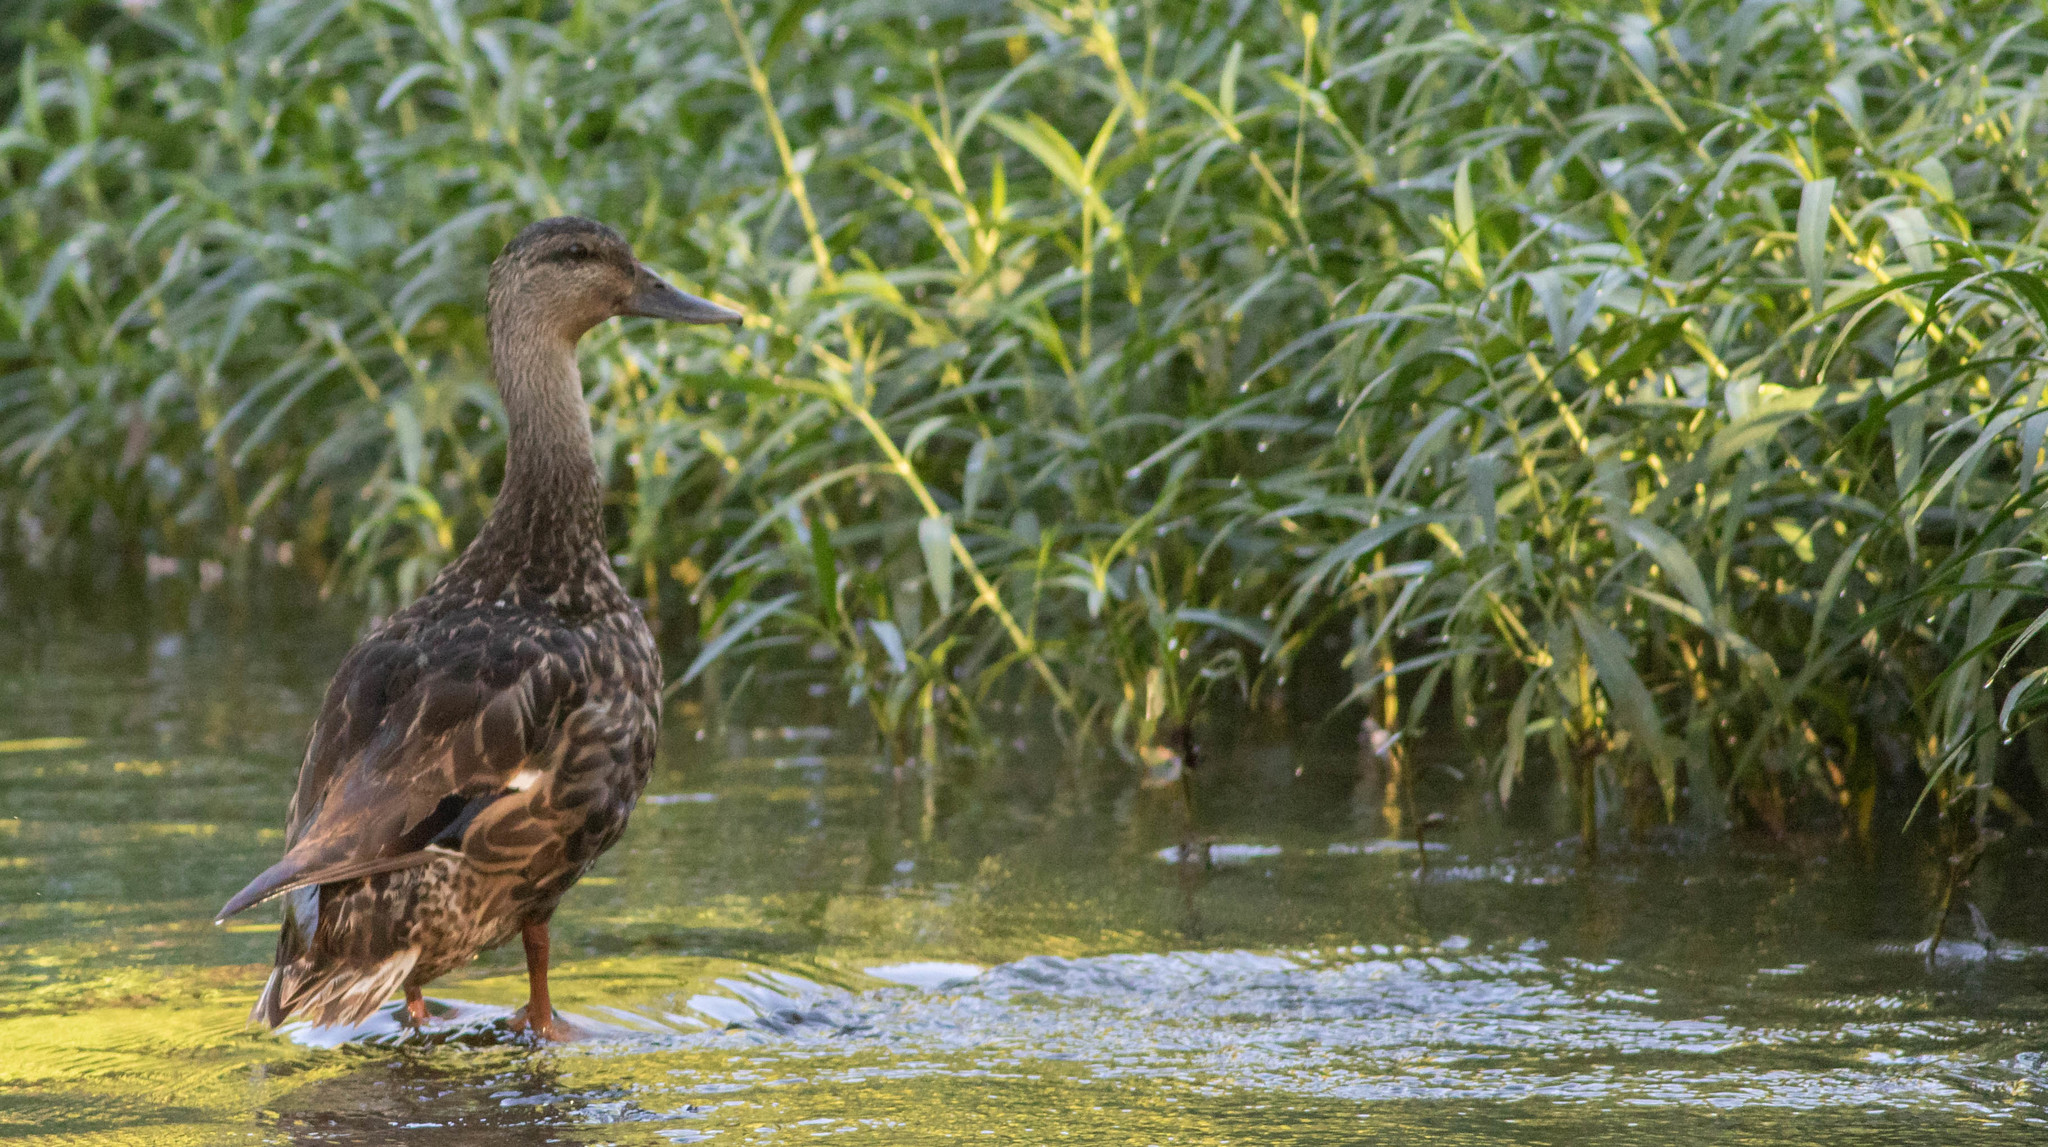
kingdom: Animalia
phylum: Chordata
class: Aves
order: Anseriformes
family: Anatidae
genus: Anas
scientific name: Anas platyrhynchos
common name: Mallard
